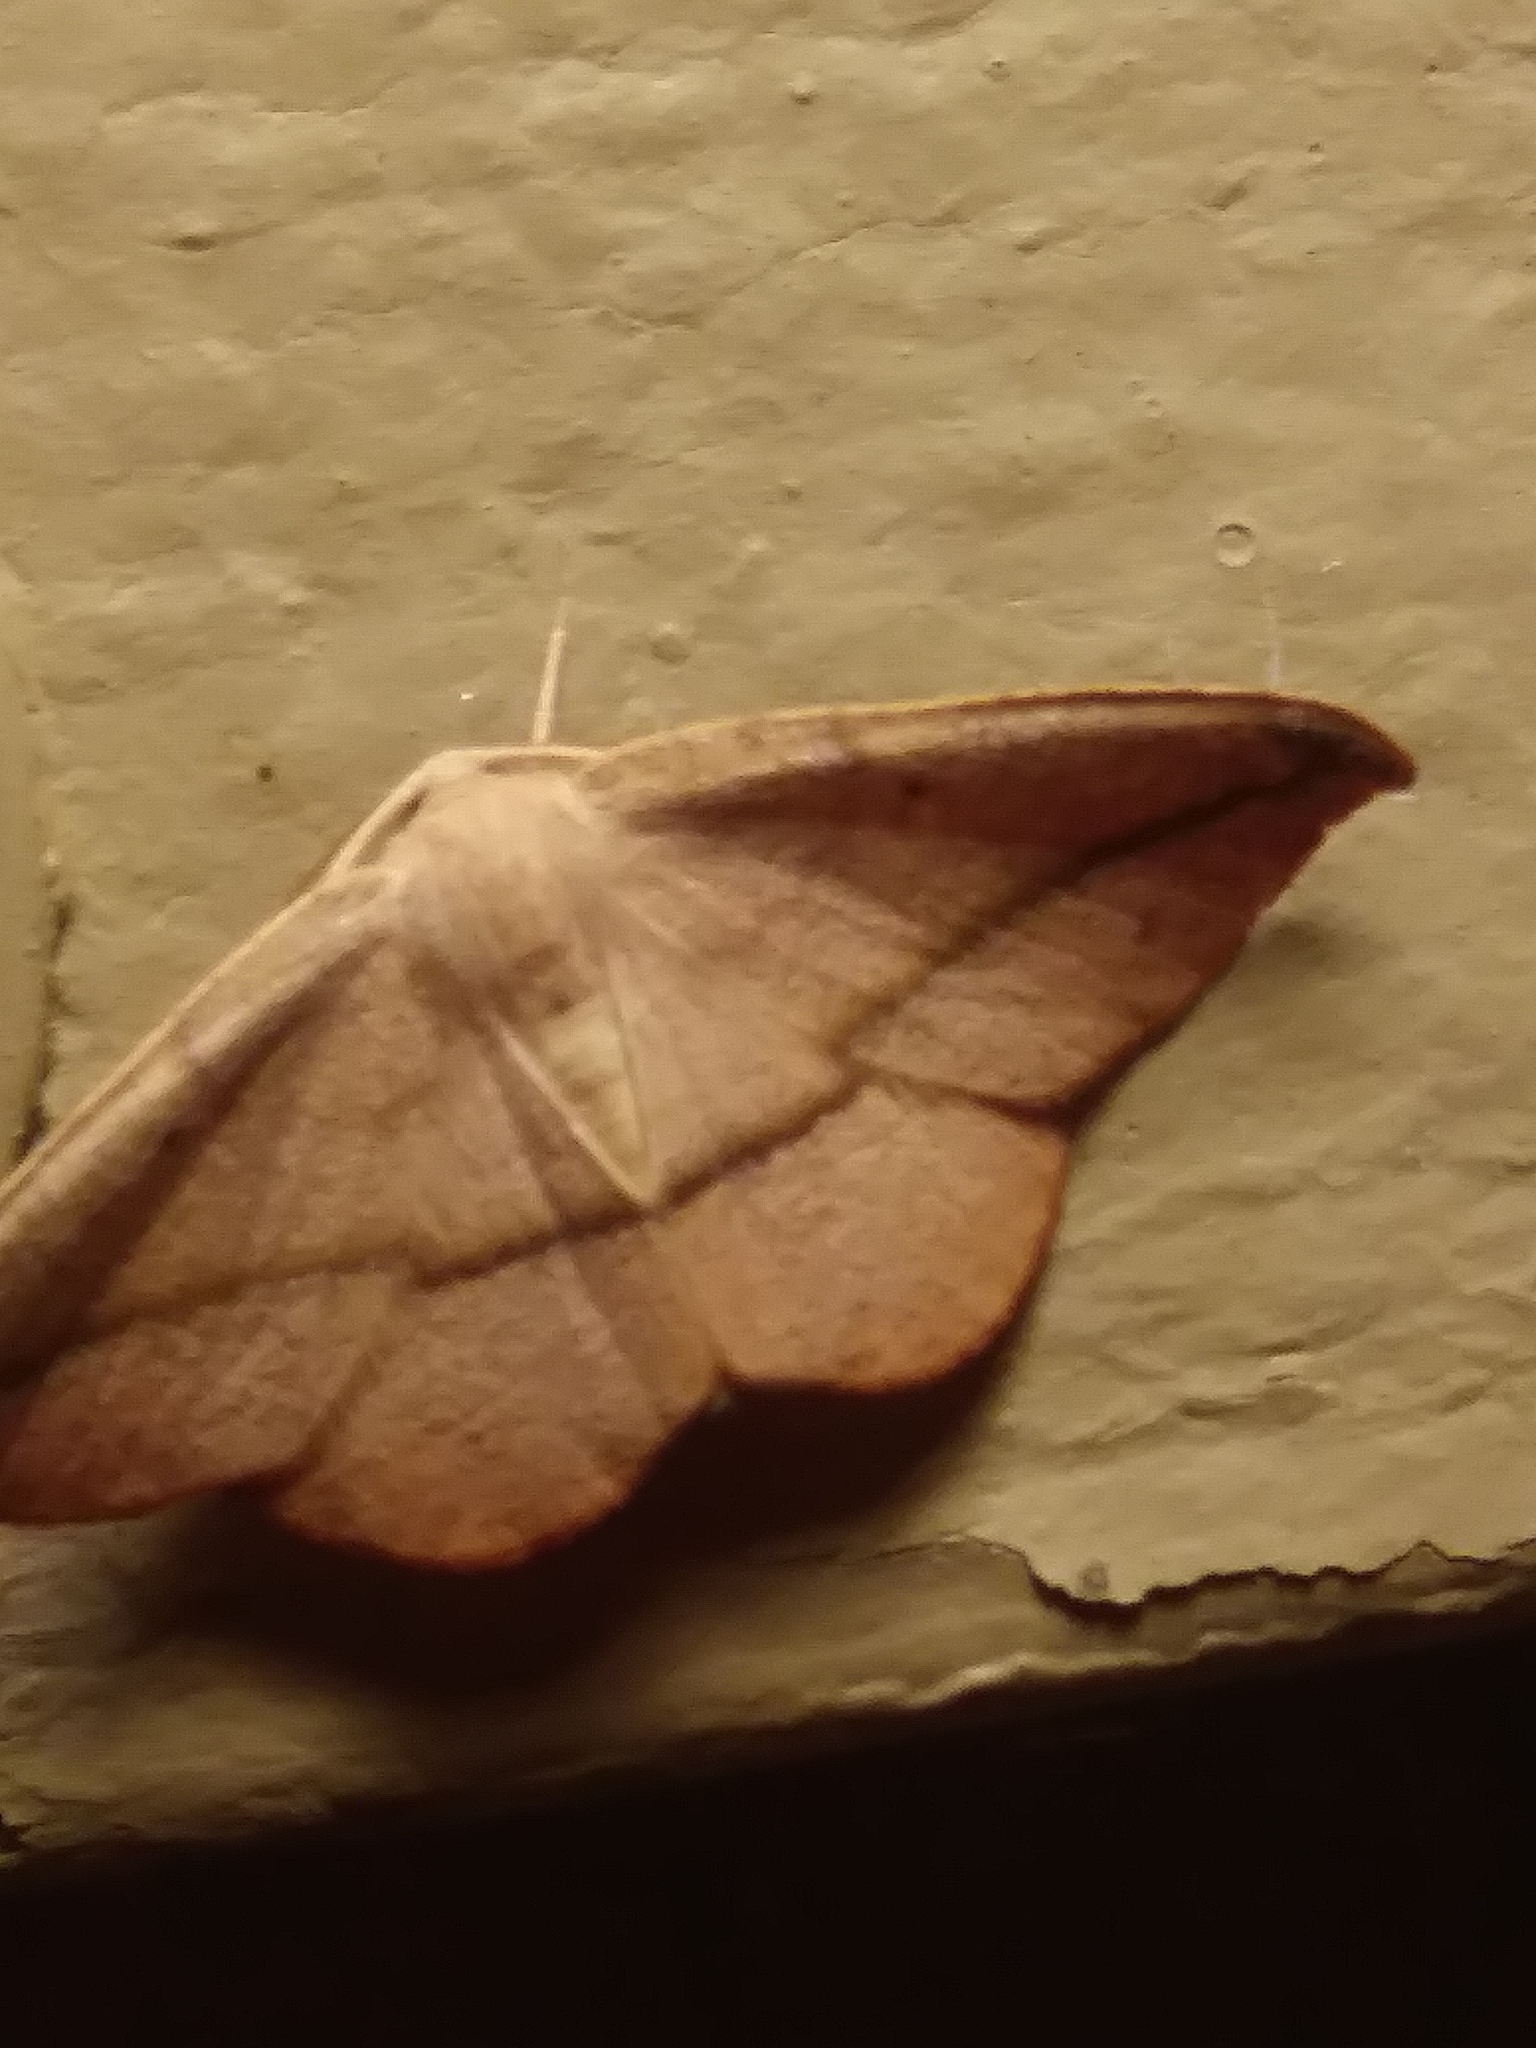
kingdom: Animalia
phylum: Arthropoda
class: Insecta
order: Lepidoptera
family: Geometridae
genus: Patalene
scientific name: Patalene olyzonaria
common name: Juniper geometer moth
